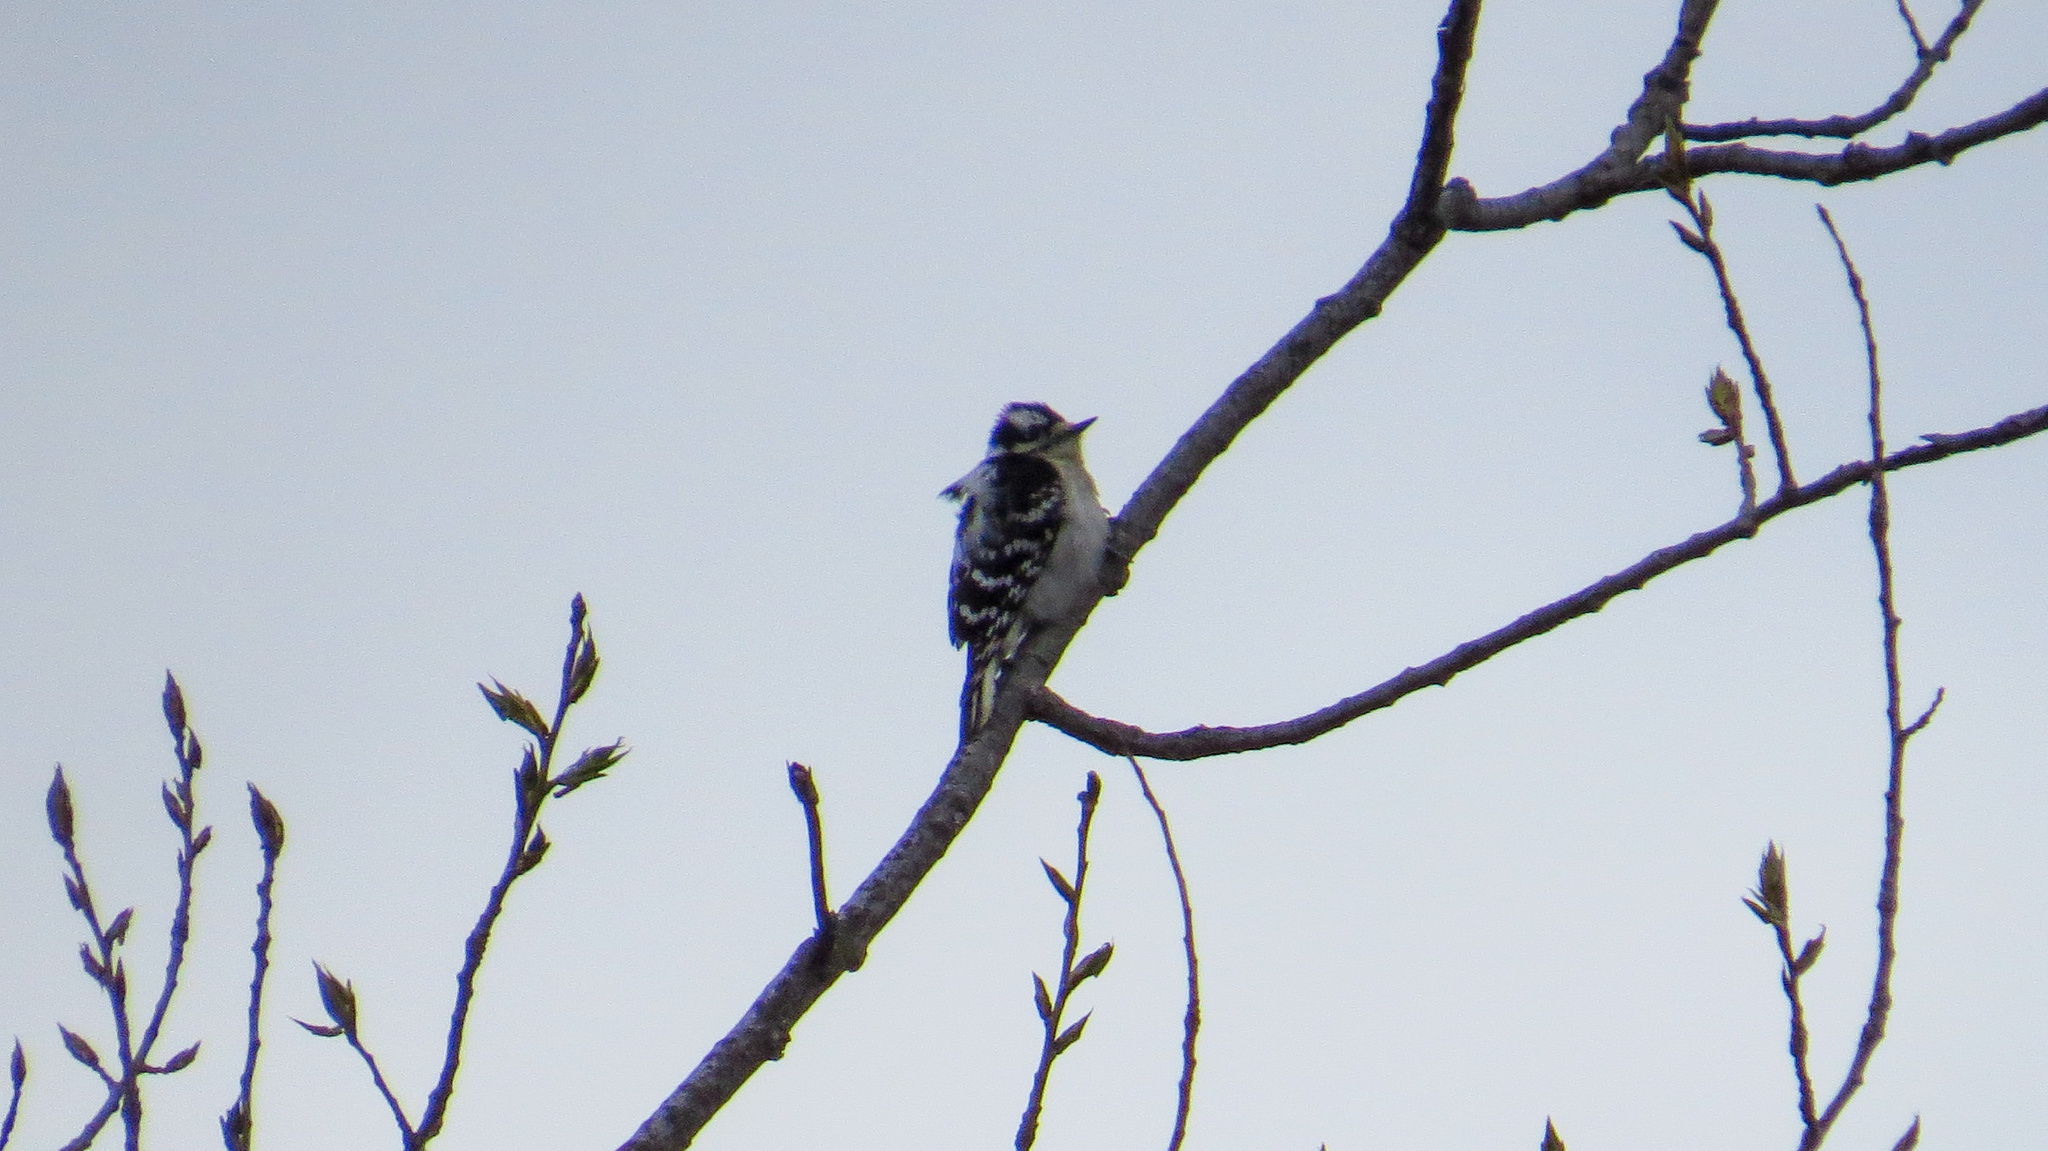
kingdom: Animalia
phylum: Chordata
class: Aves
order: Piciformes
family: Picidae
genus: Dryobates
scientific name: Dryobates pubescens
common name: Downy woodpecker
